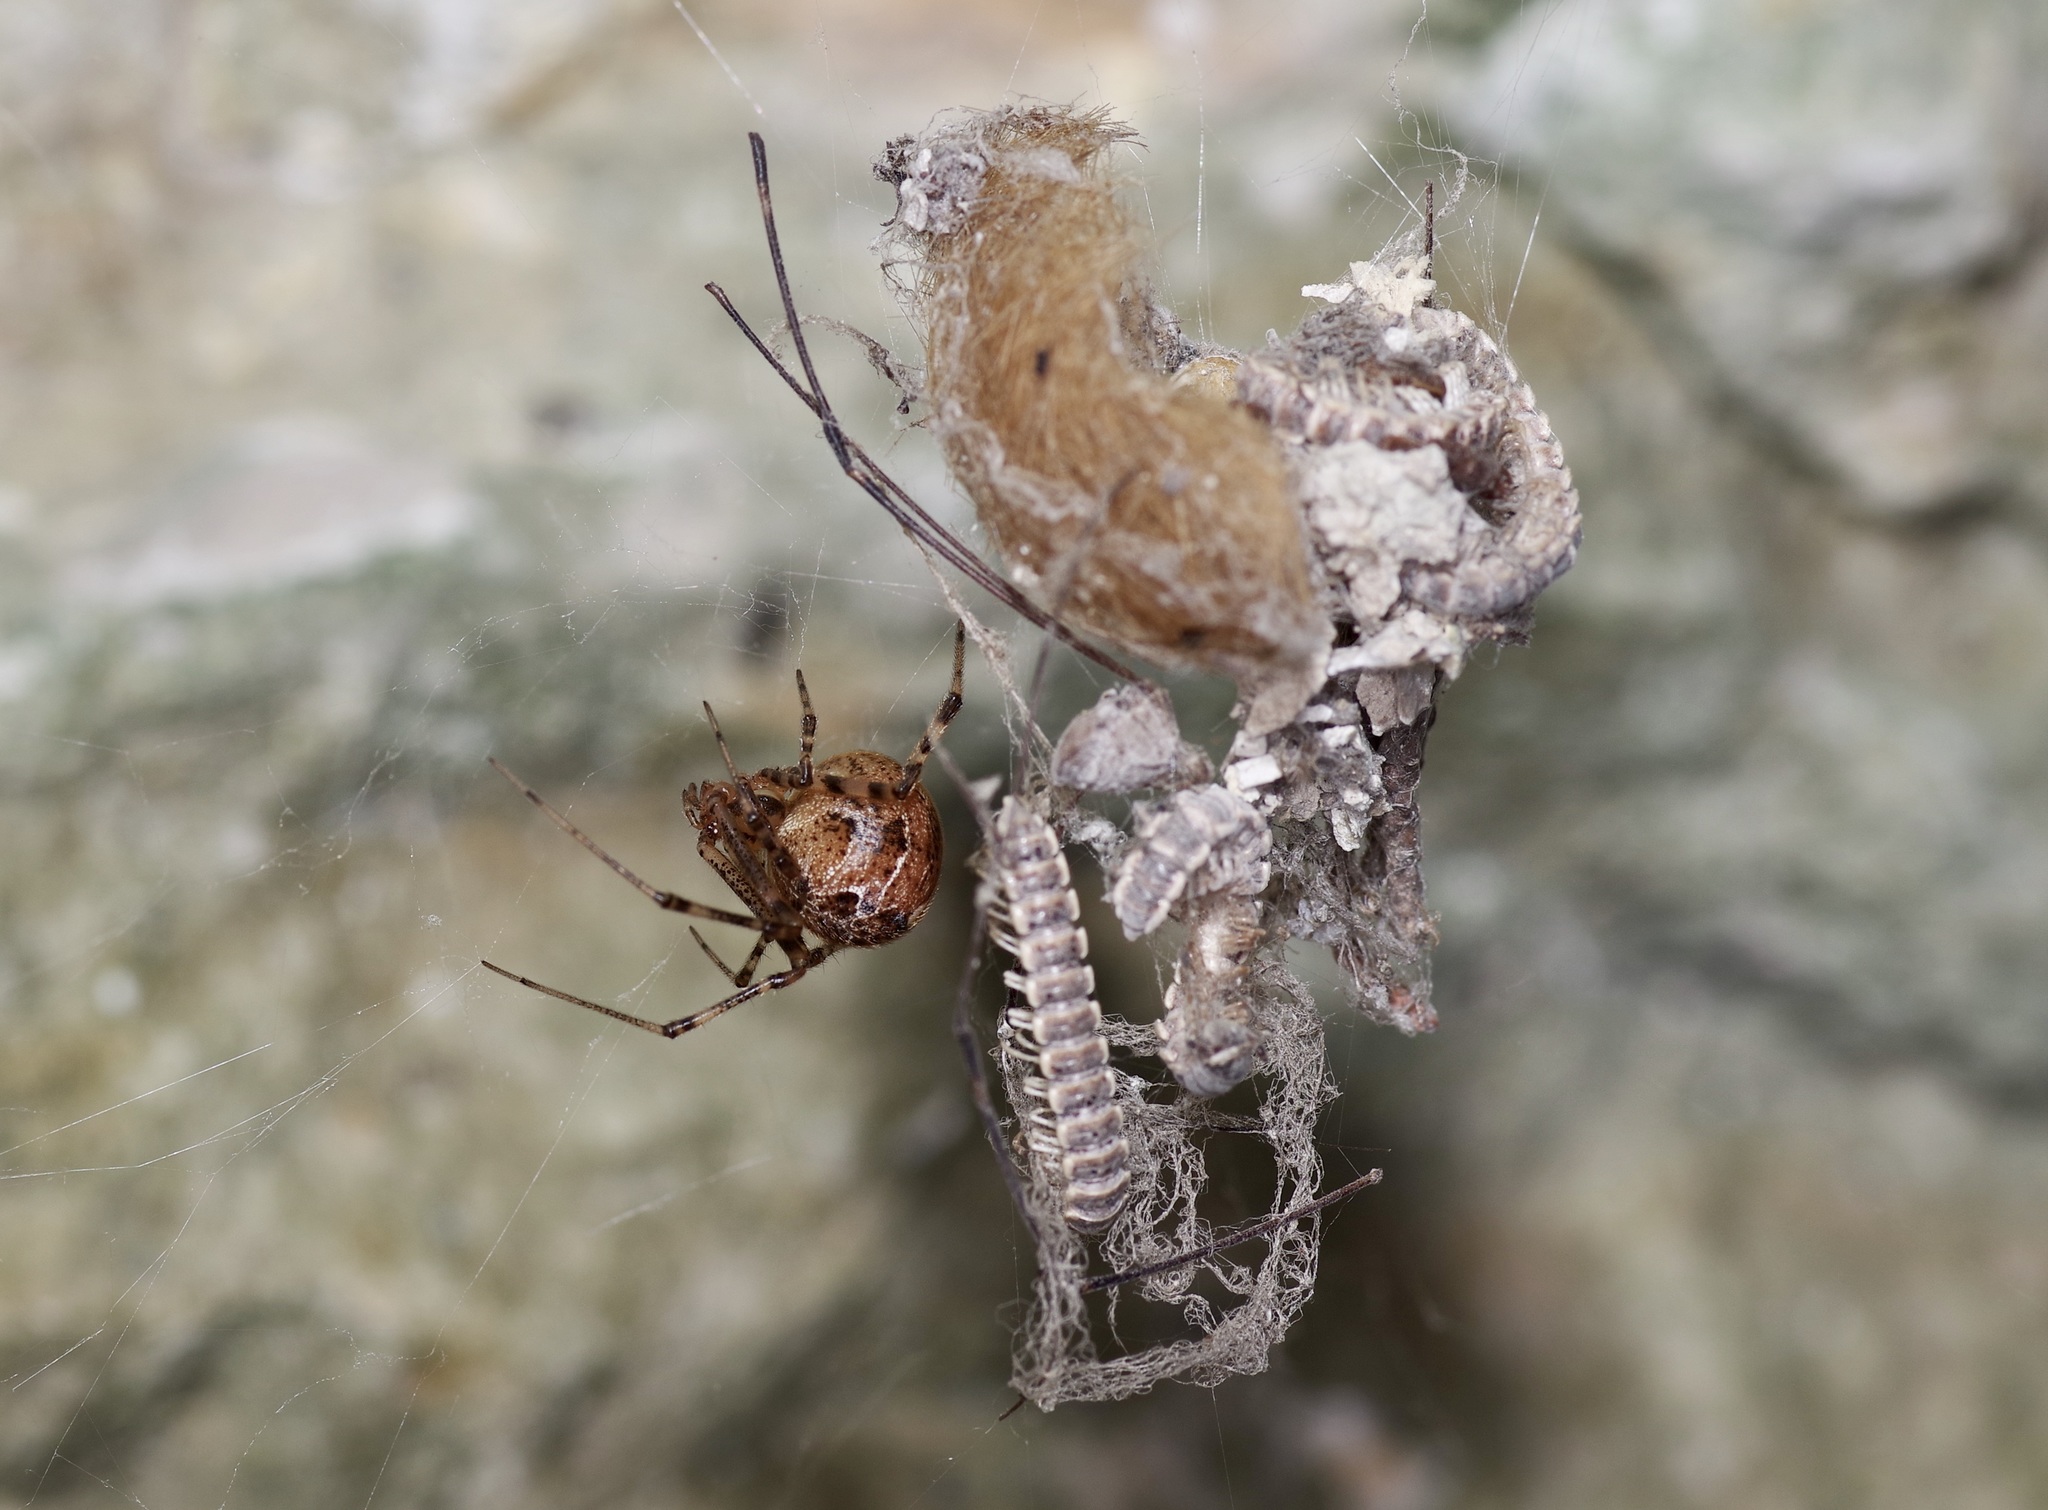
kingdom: Animalia
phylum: Arthropoda
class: Arachnida
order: Araneae
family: Theridiidae
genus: Parasteatoda
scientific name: Parasteatoda tepidariorum
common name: Common house spider
